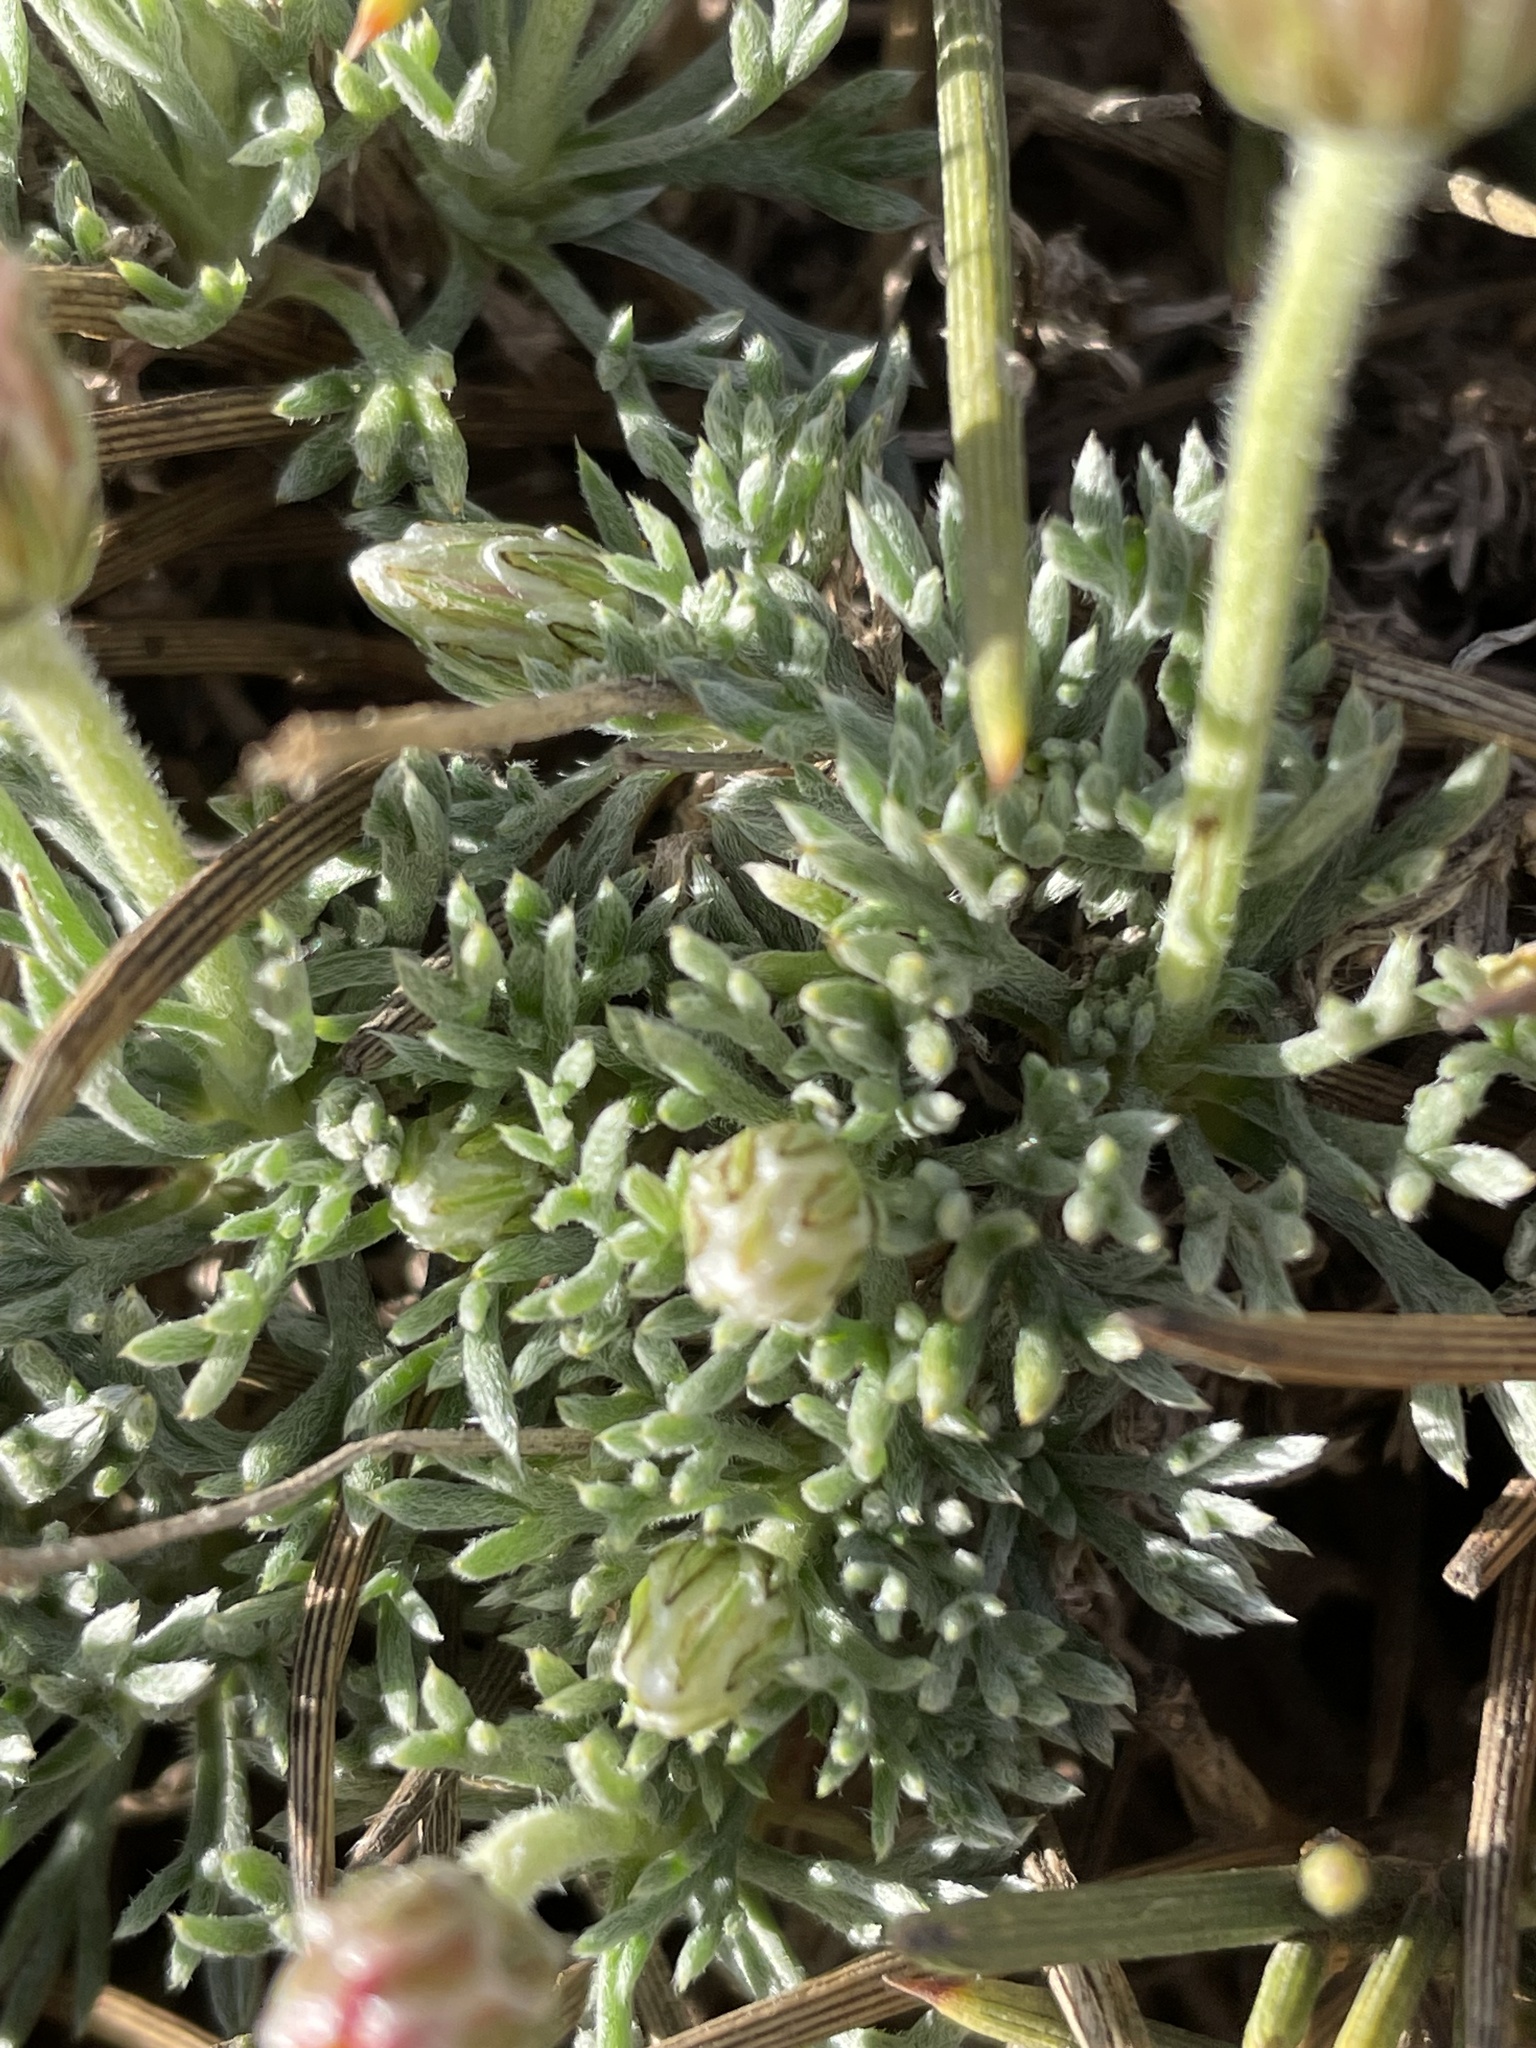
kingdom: Plantae
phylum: Tracheophyta
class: Magnoliopsida
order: Asterales
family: Asteraceae
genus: Rhodanthemum
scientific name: Rhodanthemum catananche
